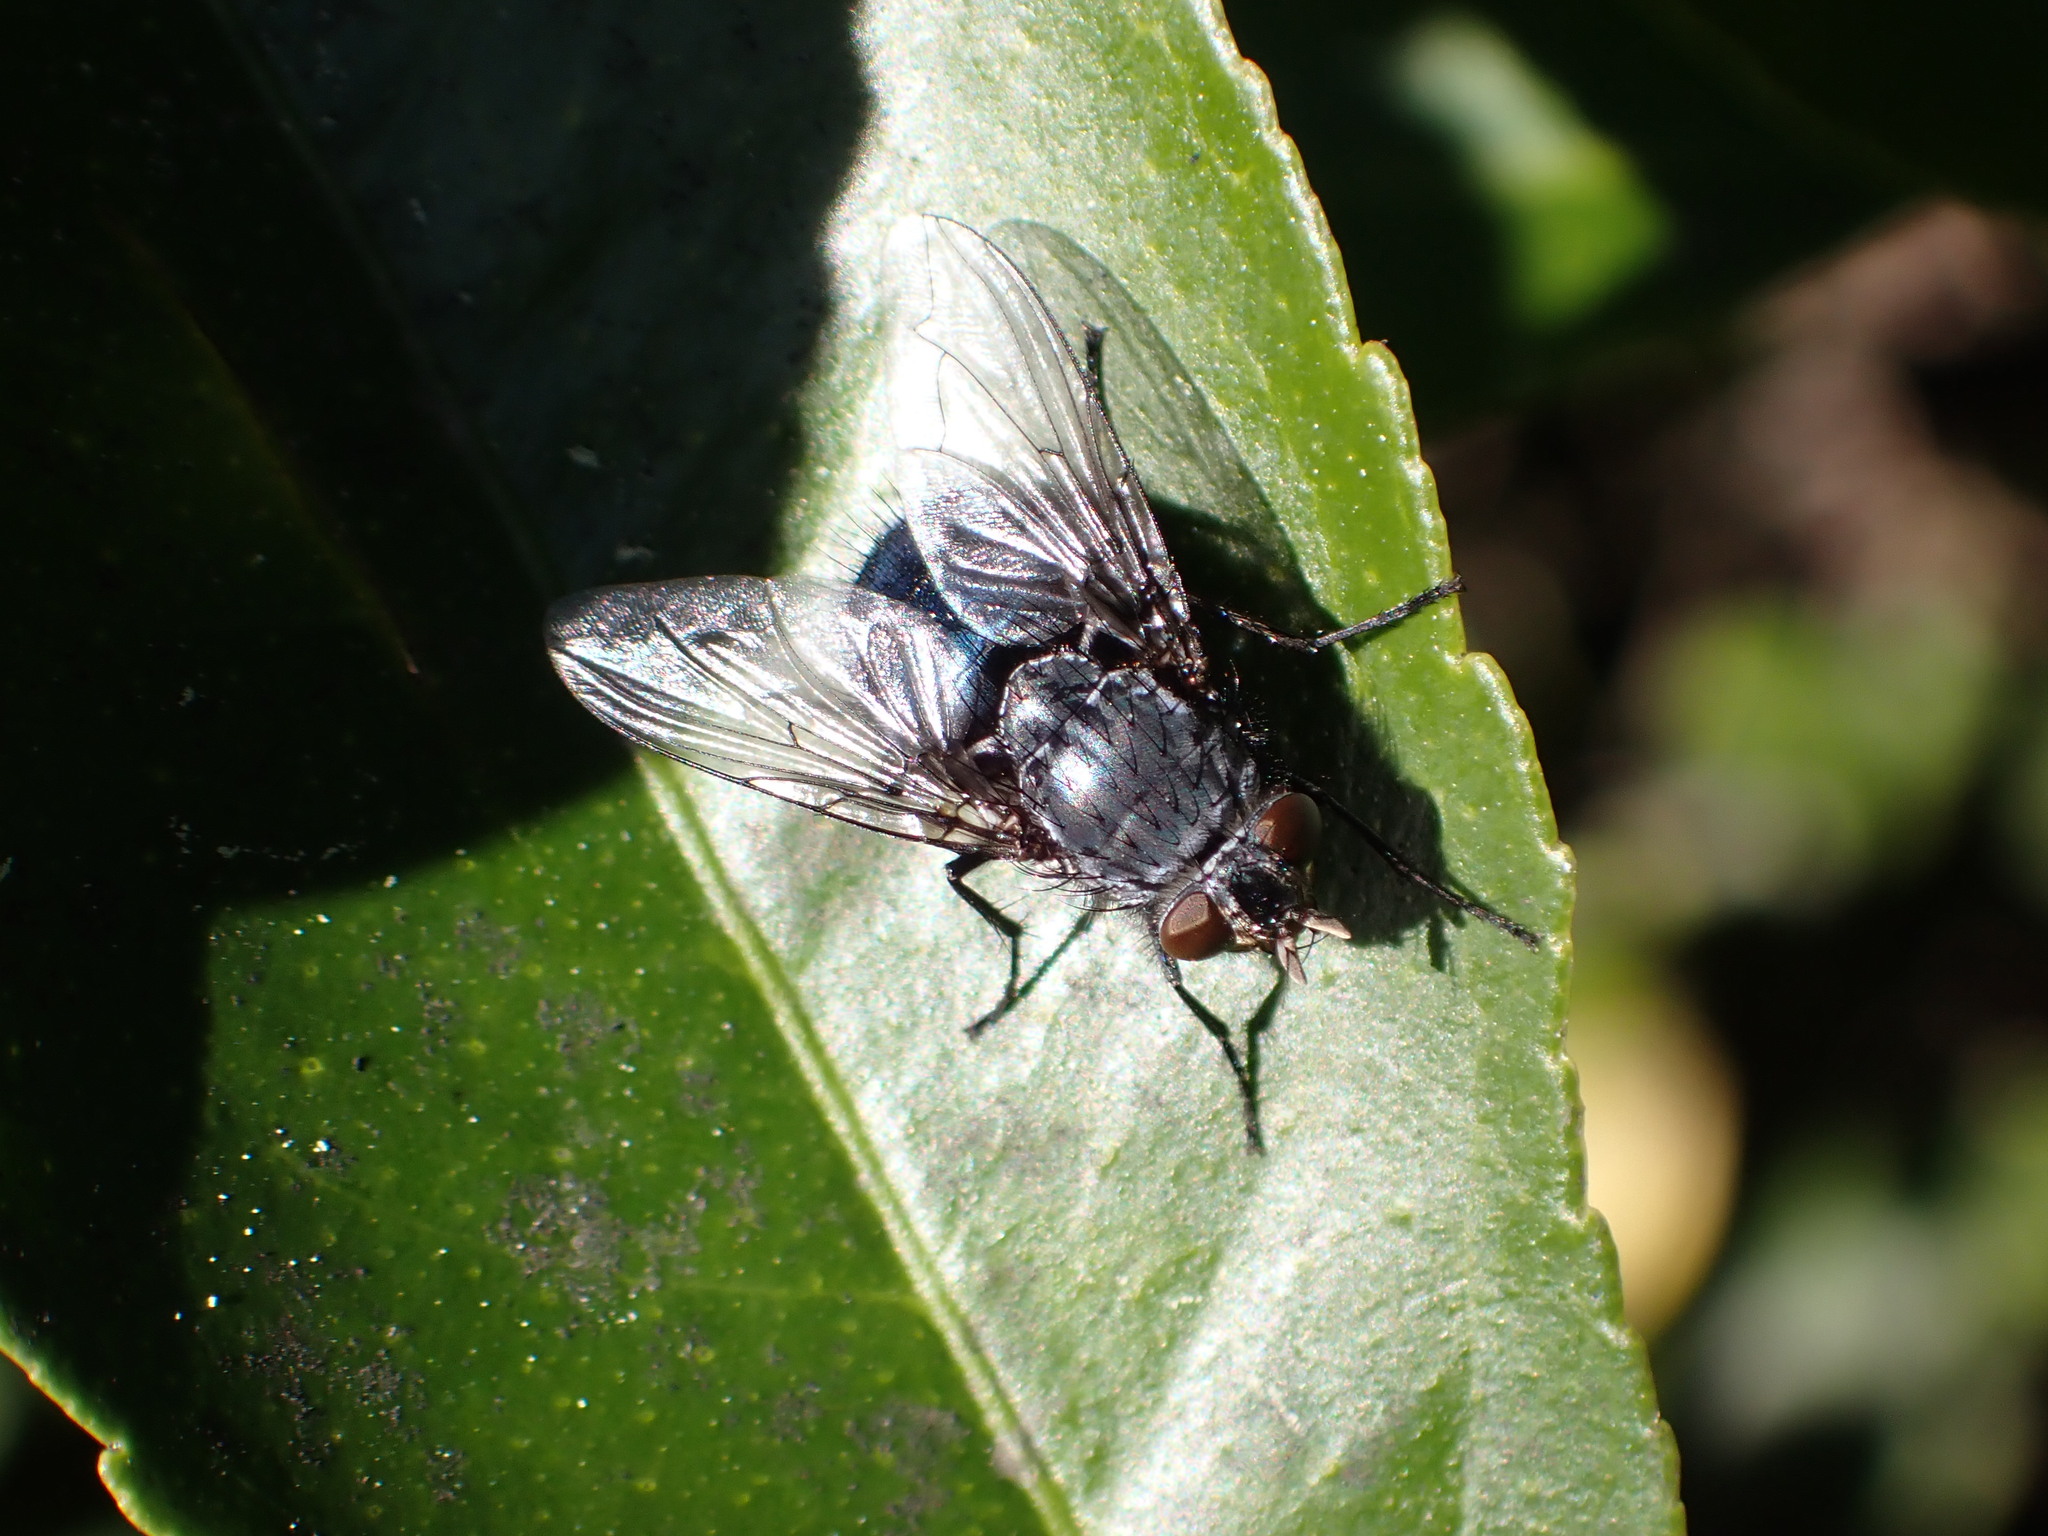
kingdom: Animalia
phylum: Arthropoda
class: Insecta
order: Diptera
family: Calliphoridae
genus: Calliphora
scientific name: Calliphora vicina
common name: Common blow flie
